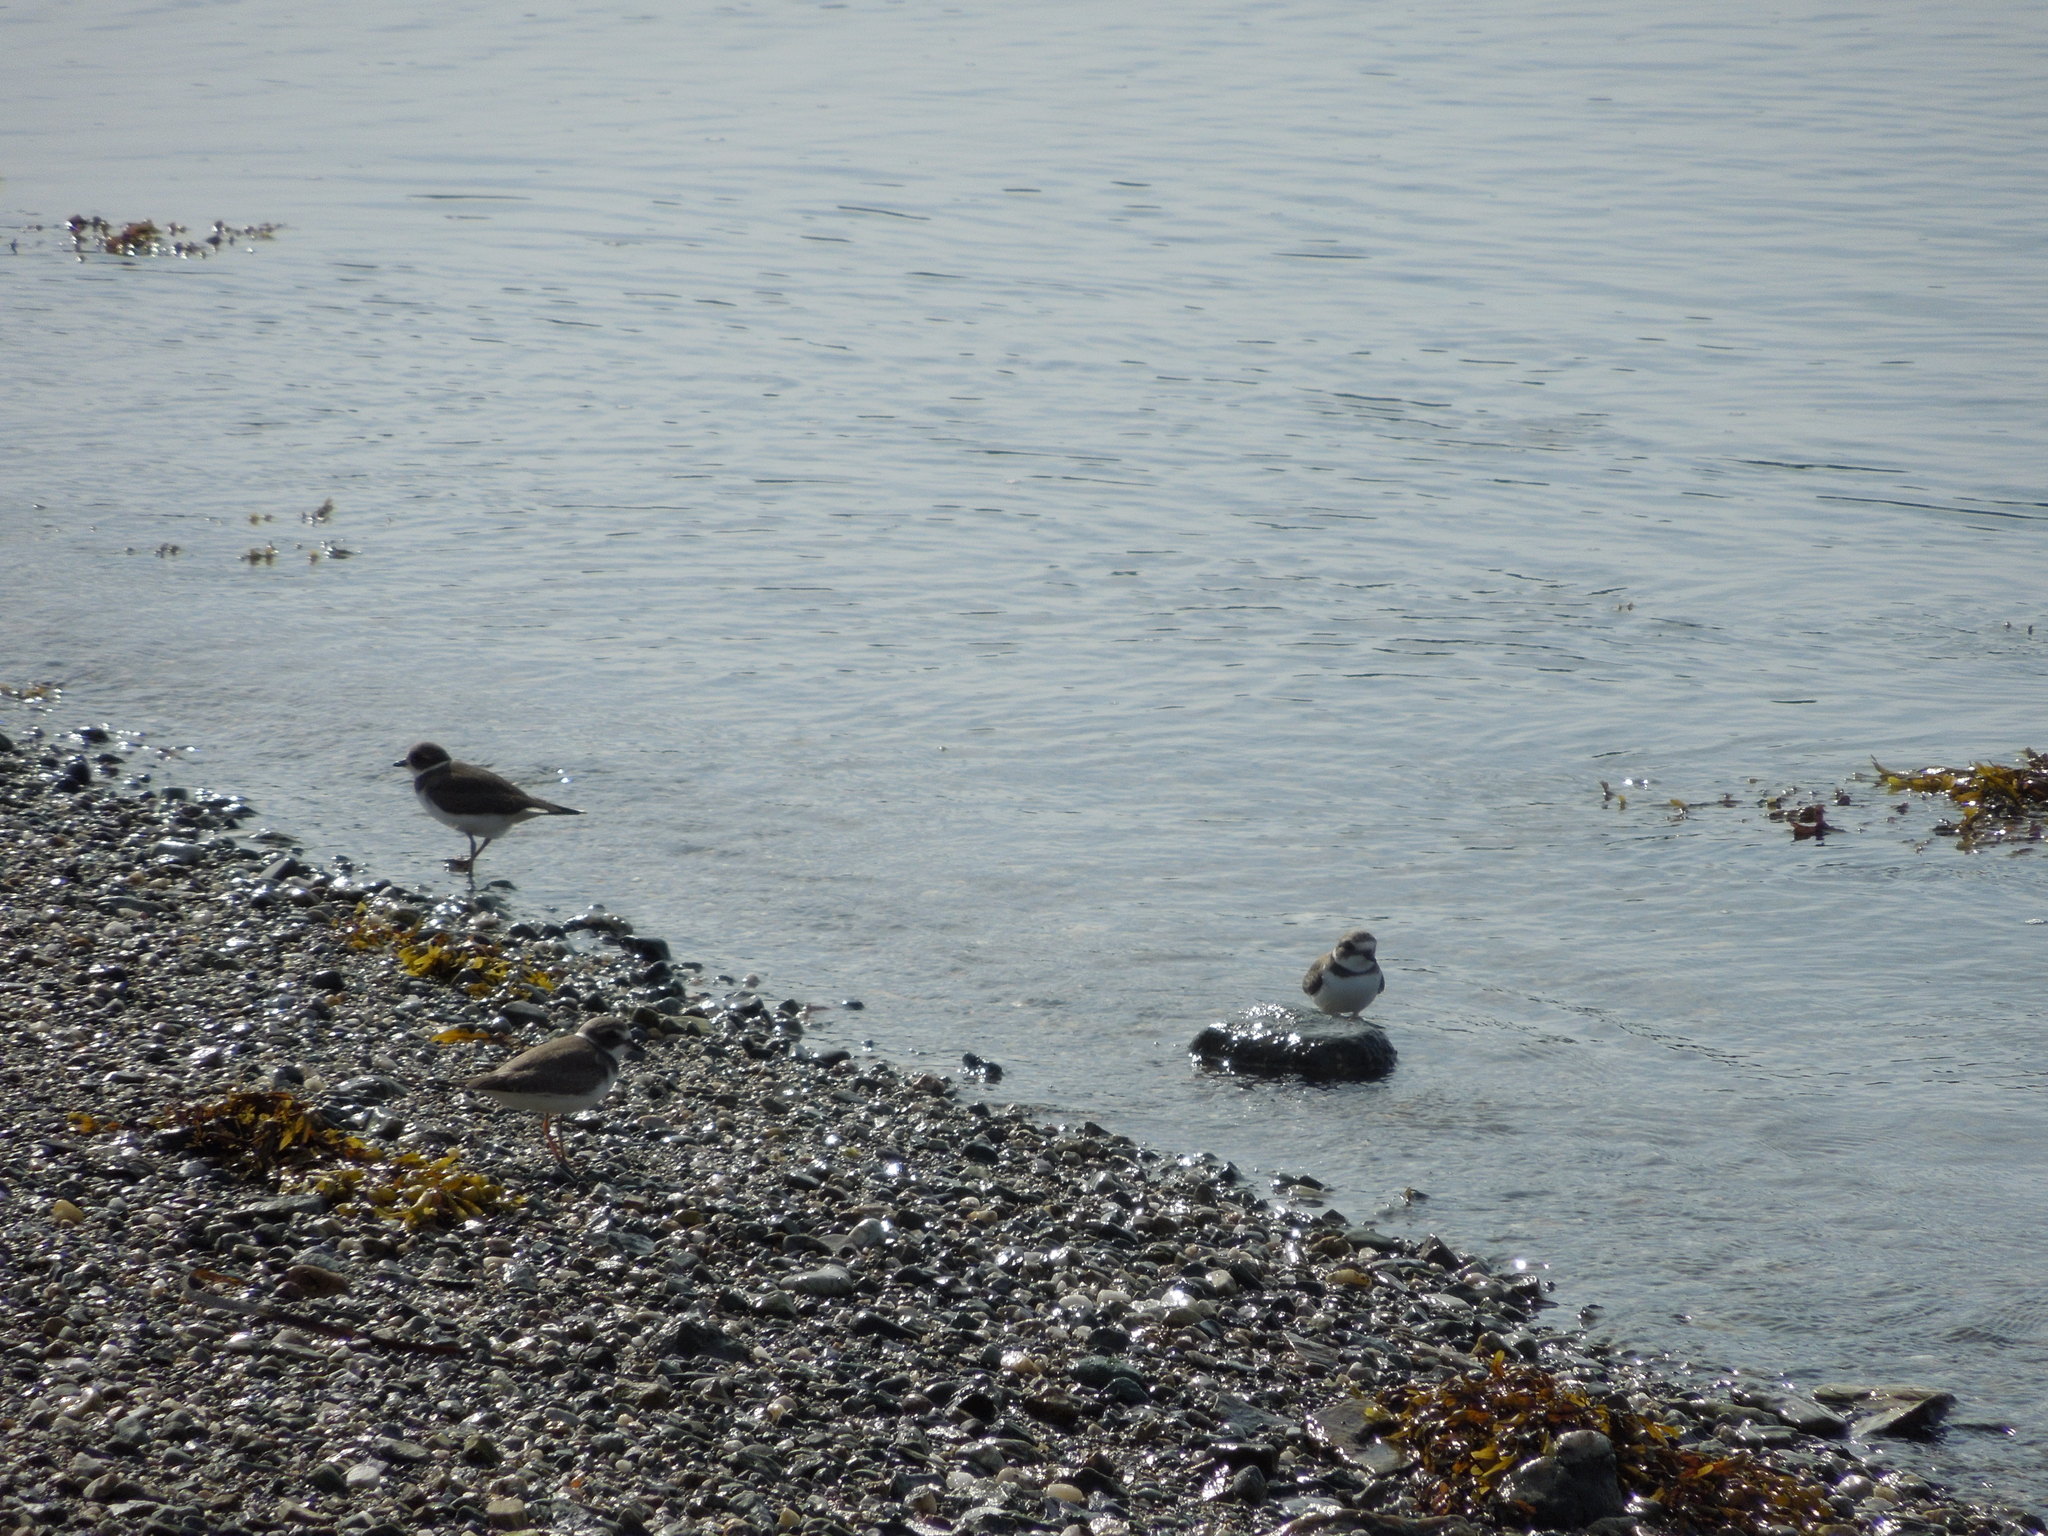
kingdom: Animalia
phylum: Chordata
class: Aves
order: Charadriiformes
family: Charadriidae
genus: Charadrius
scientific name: Charadrius semipalmatus
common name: Semipalmated plover
